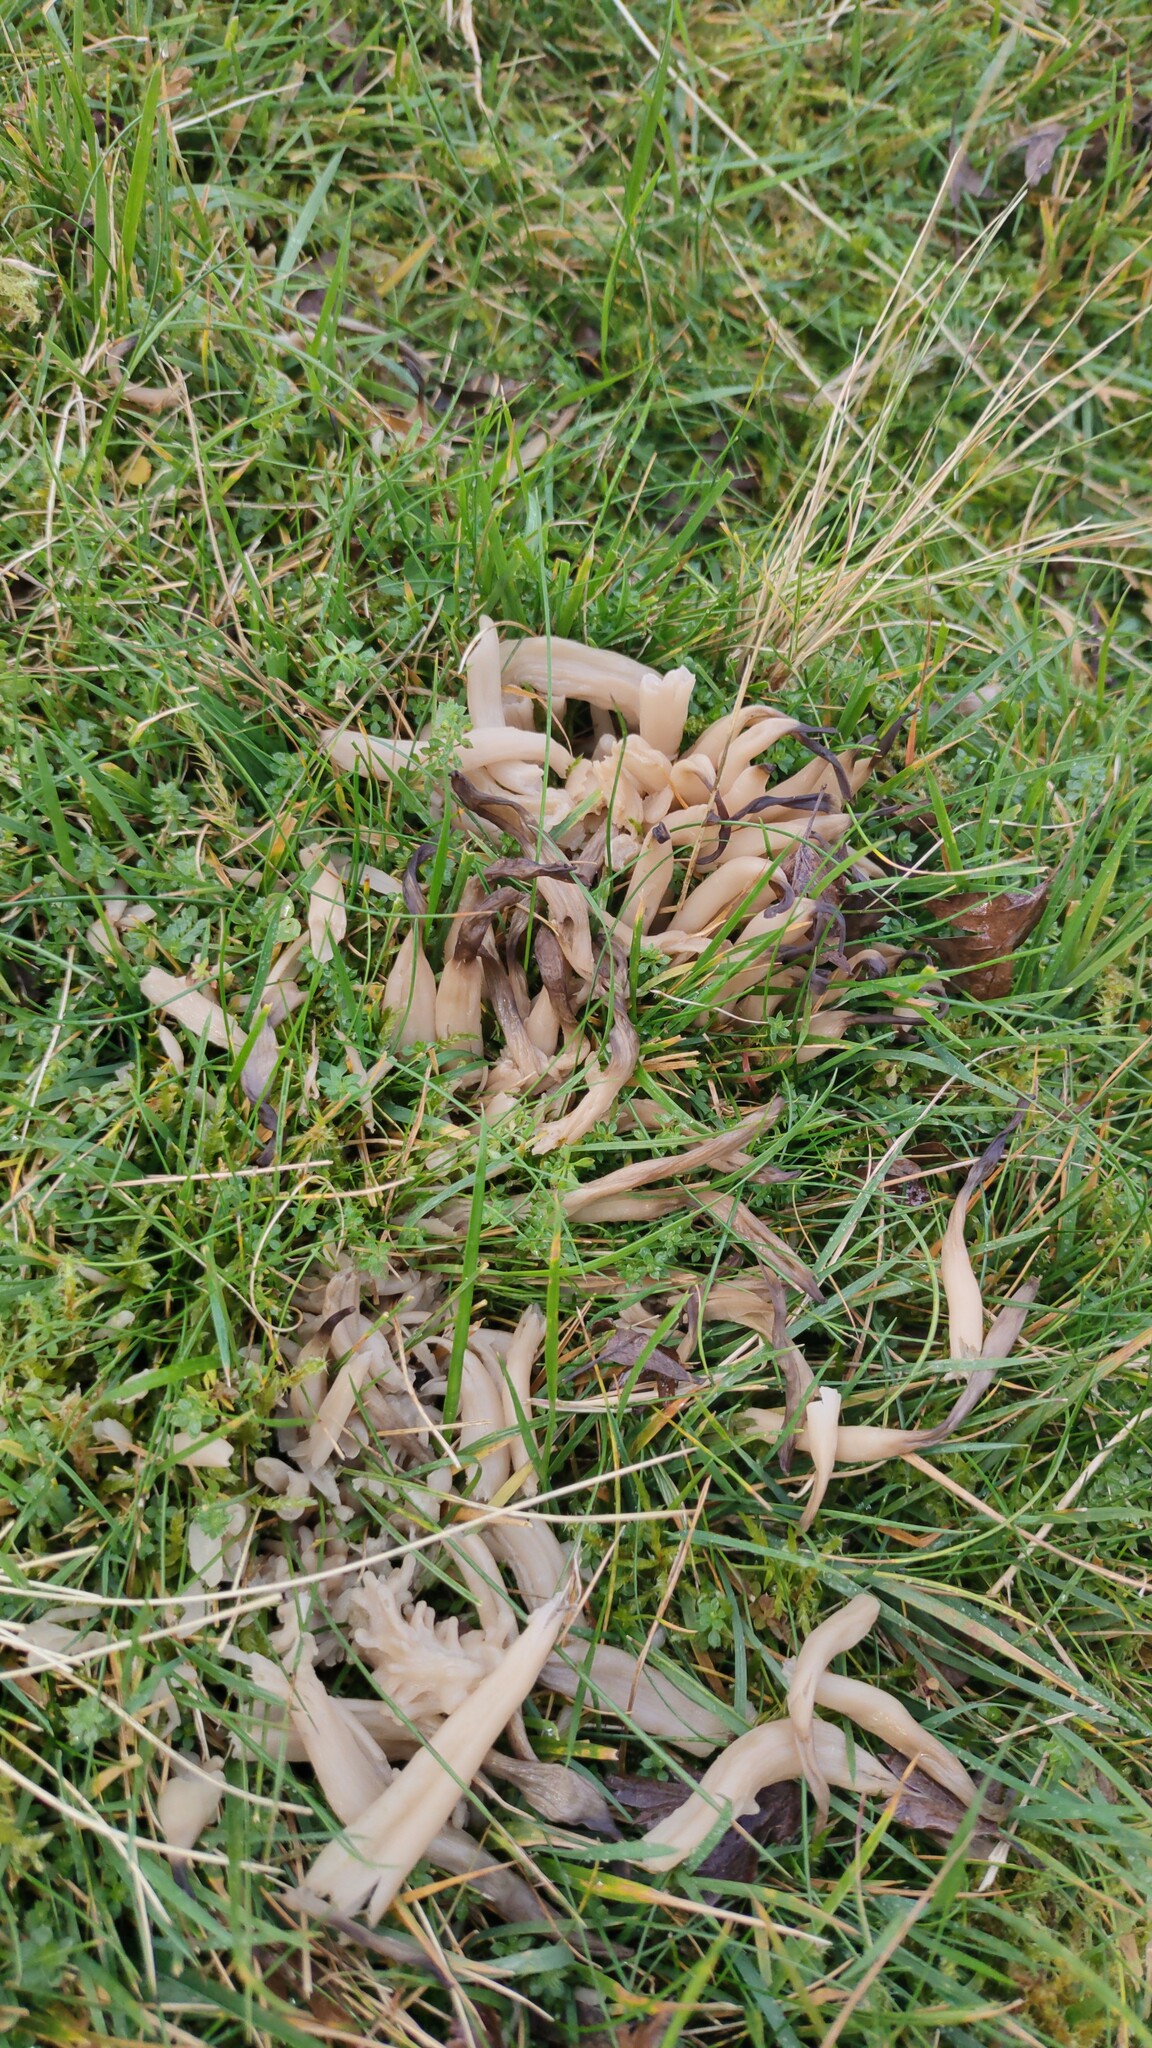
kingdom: Fungi
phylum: Basidiomycota
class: Agaricomycetes
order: Agaricales
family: Clavariaceae
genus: Clavaria
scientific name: Clavaria fumosa
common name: Smoky spindles
